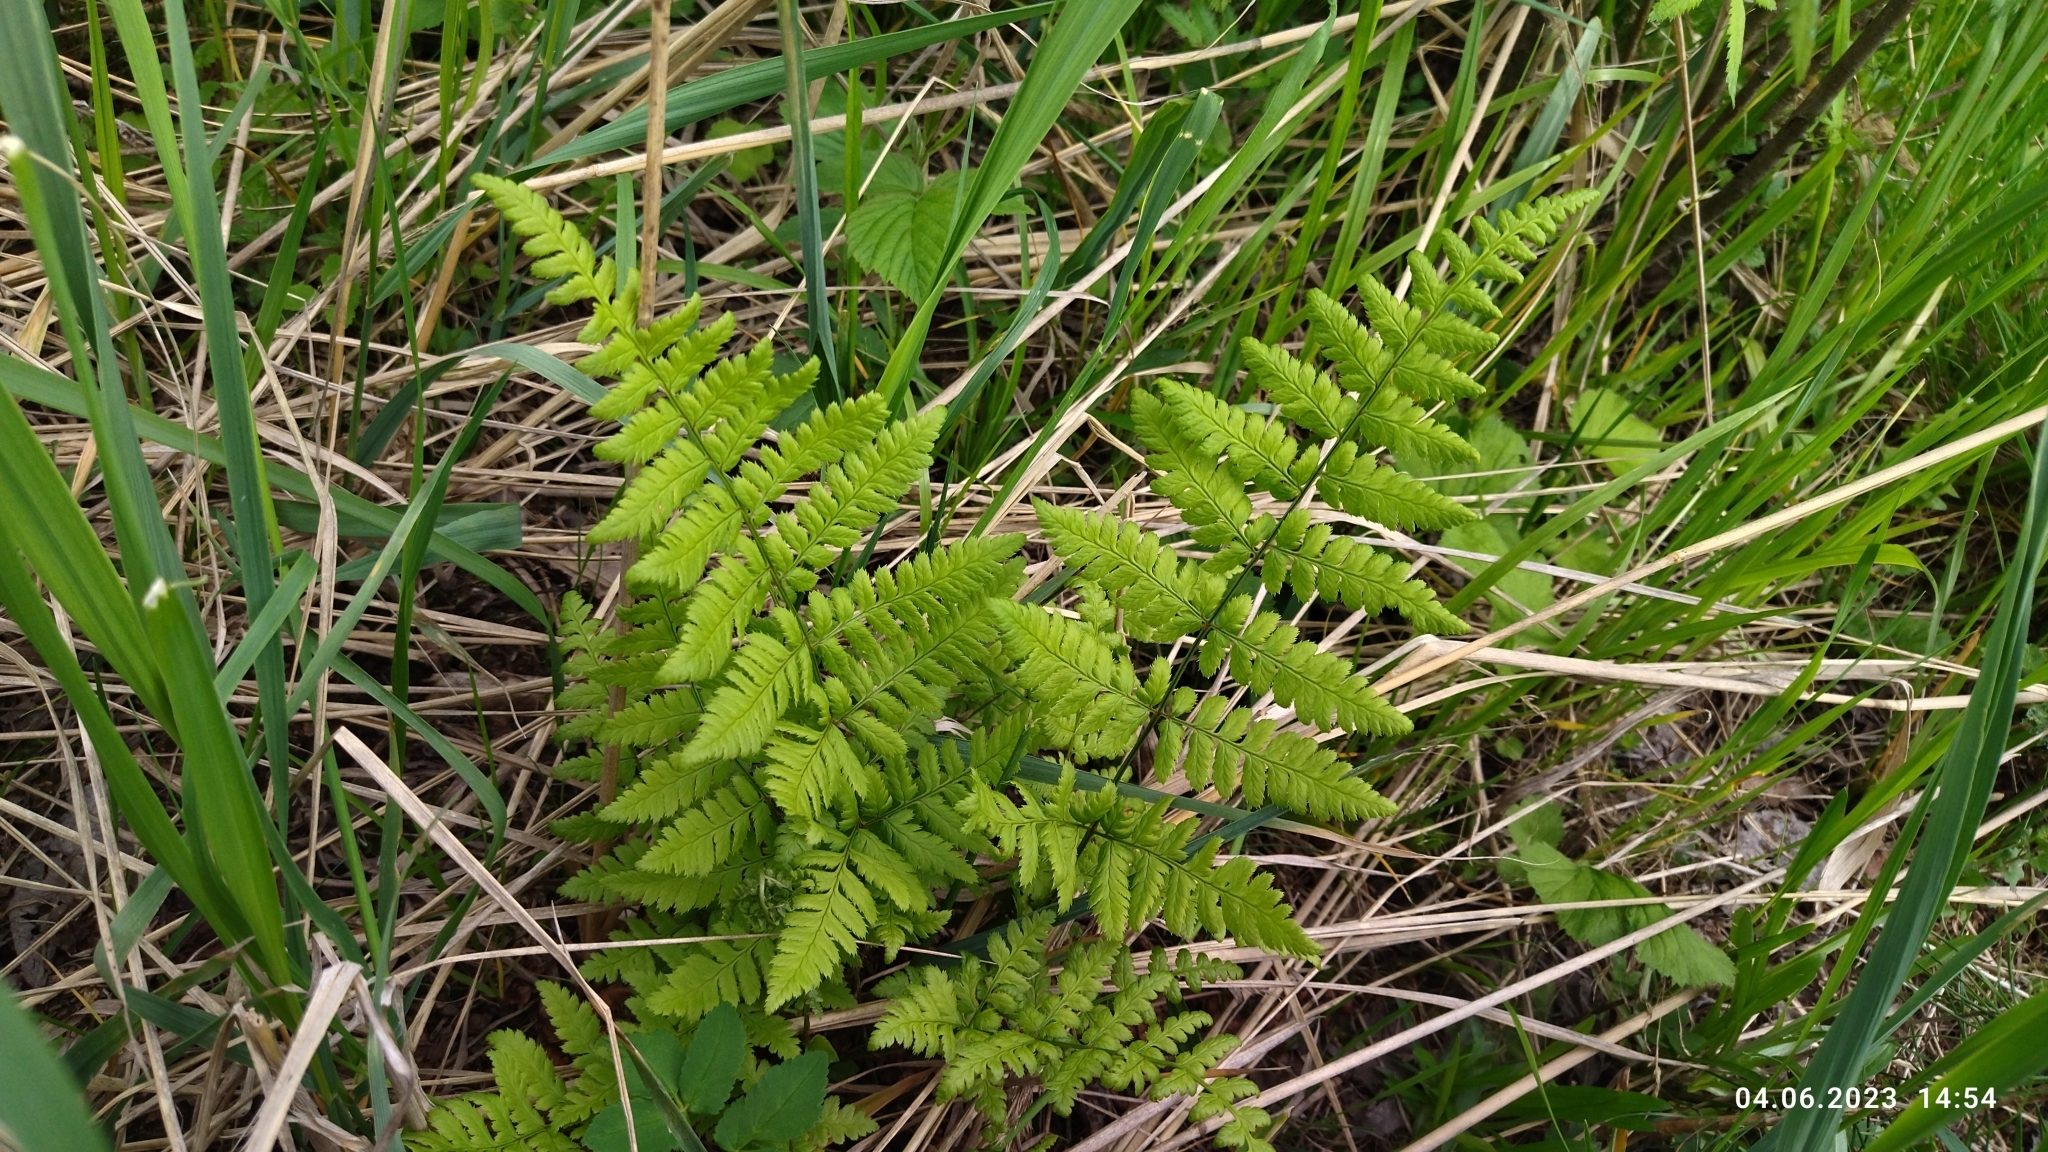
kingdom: Plantae
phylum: Tracheophyta
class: Polypodiopsida
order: Polypodiales
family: Dryopteridaceae
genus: Dryopteris
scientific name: Dryopteris carthusiana
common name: Narrow buckler-fern
